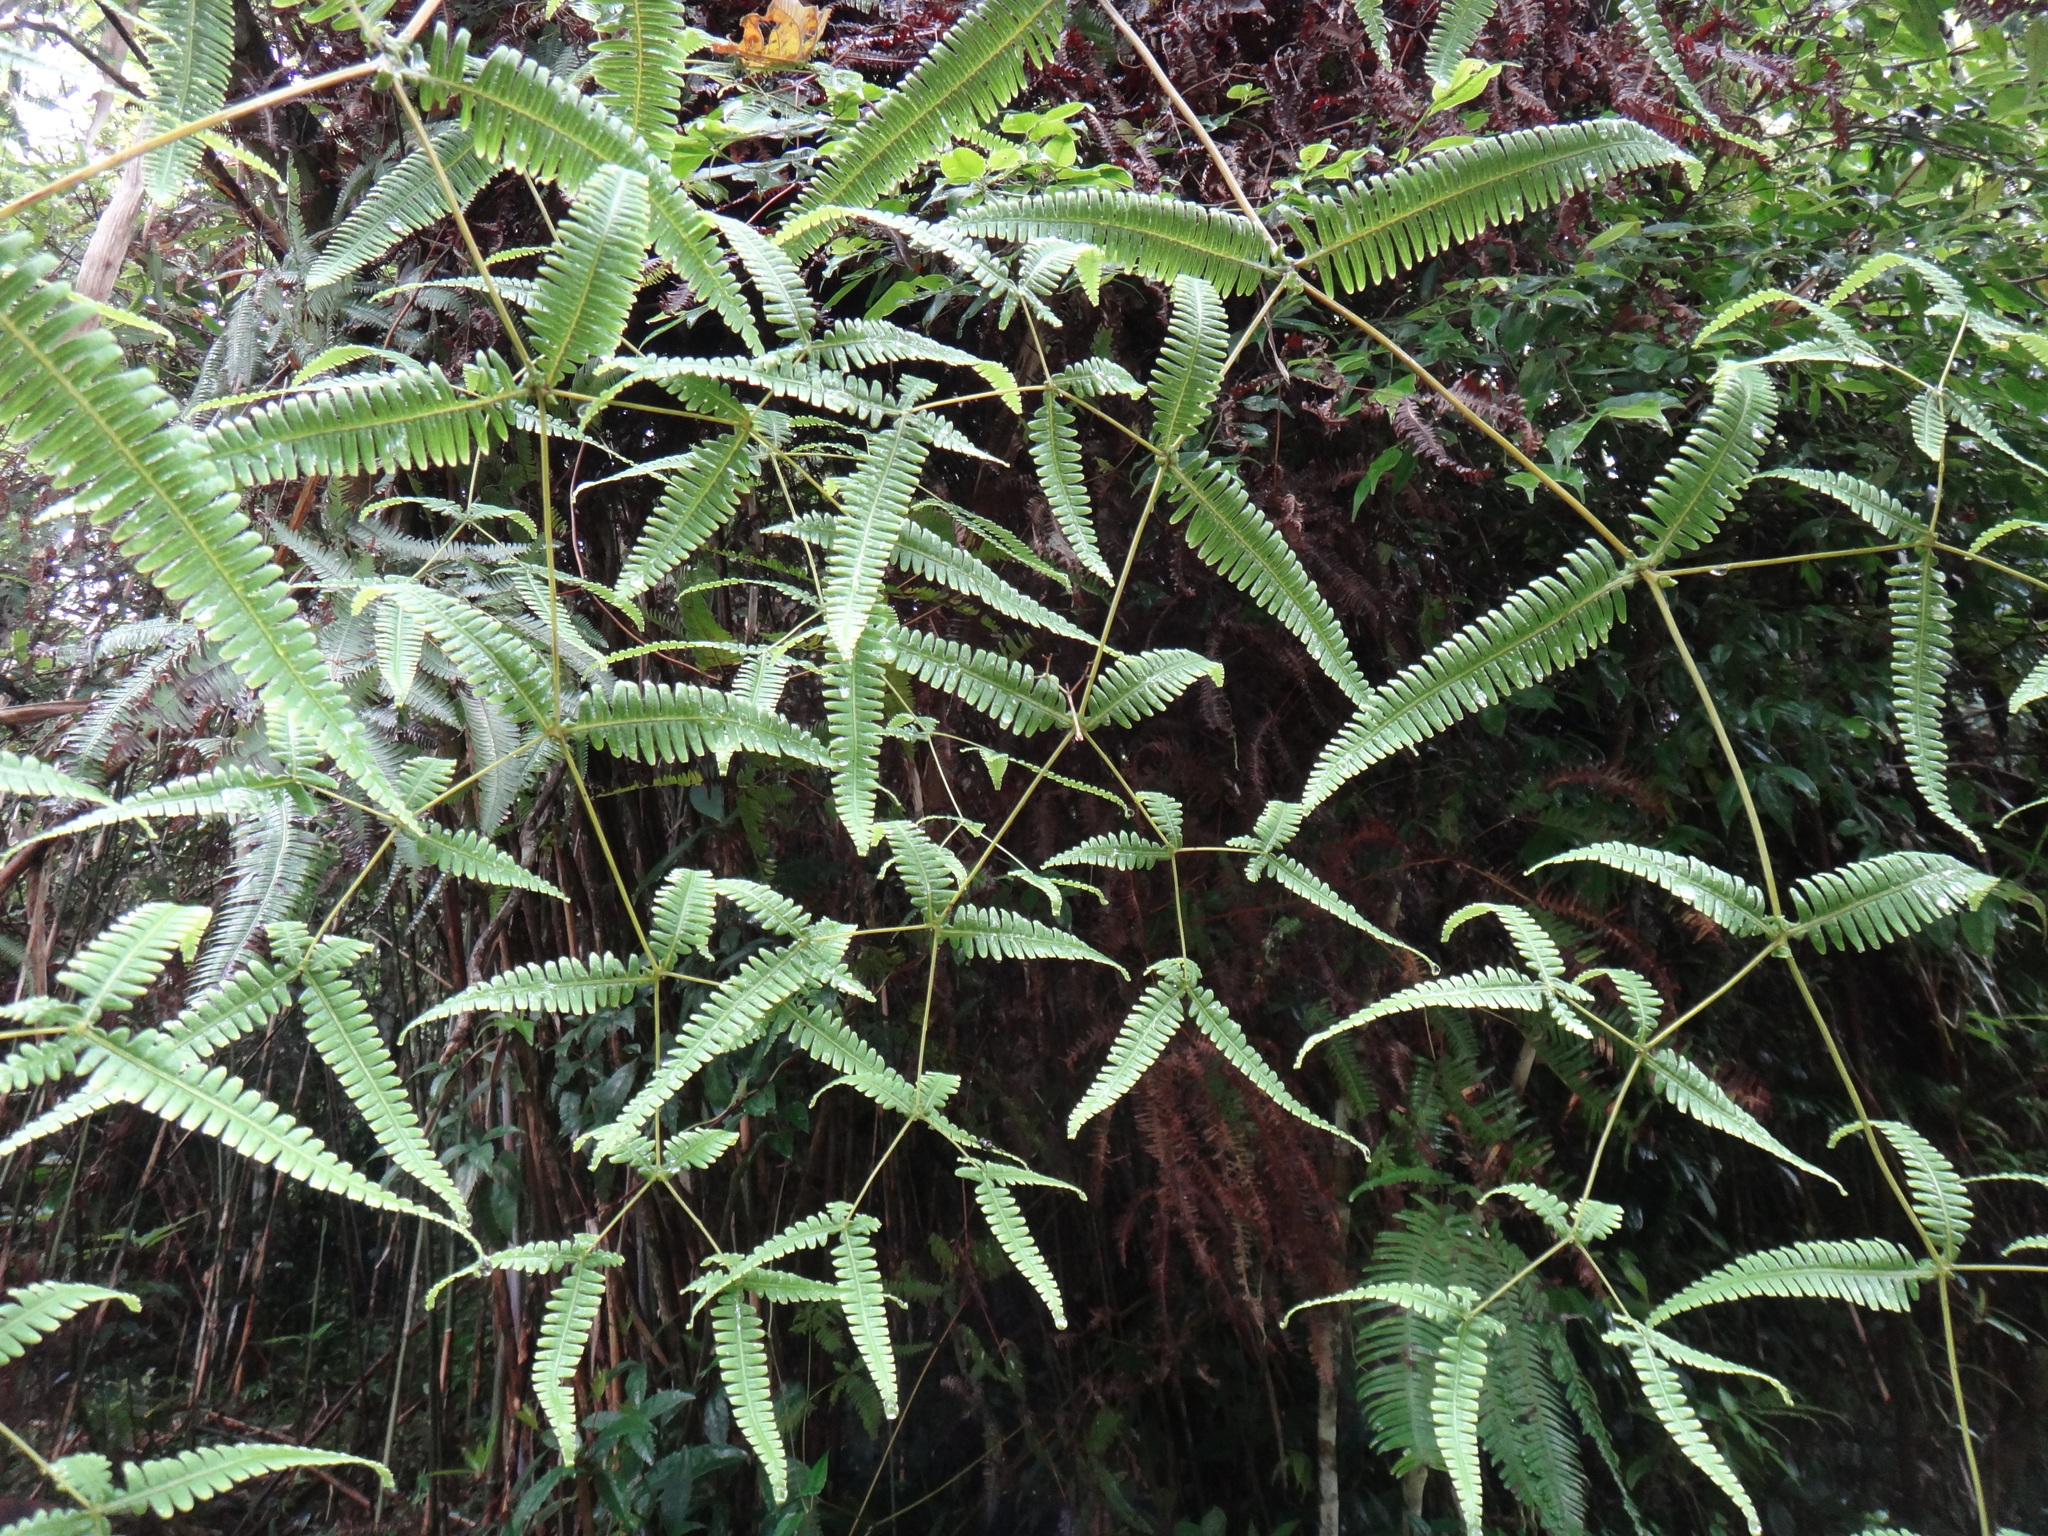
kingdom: Plantae
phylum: Tracheophyta
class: Polypodiopsida
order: Gleicheniales
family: Gleicheniaceae
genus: Dicranopteris
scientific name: Dicranopteris tetraphylla
